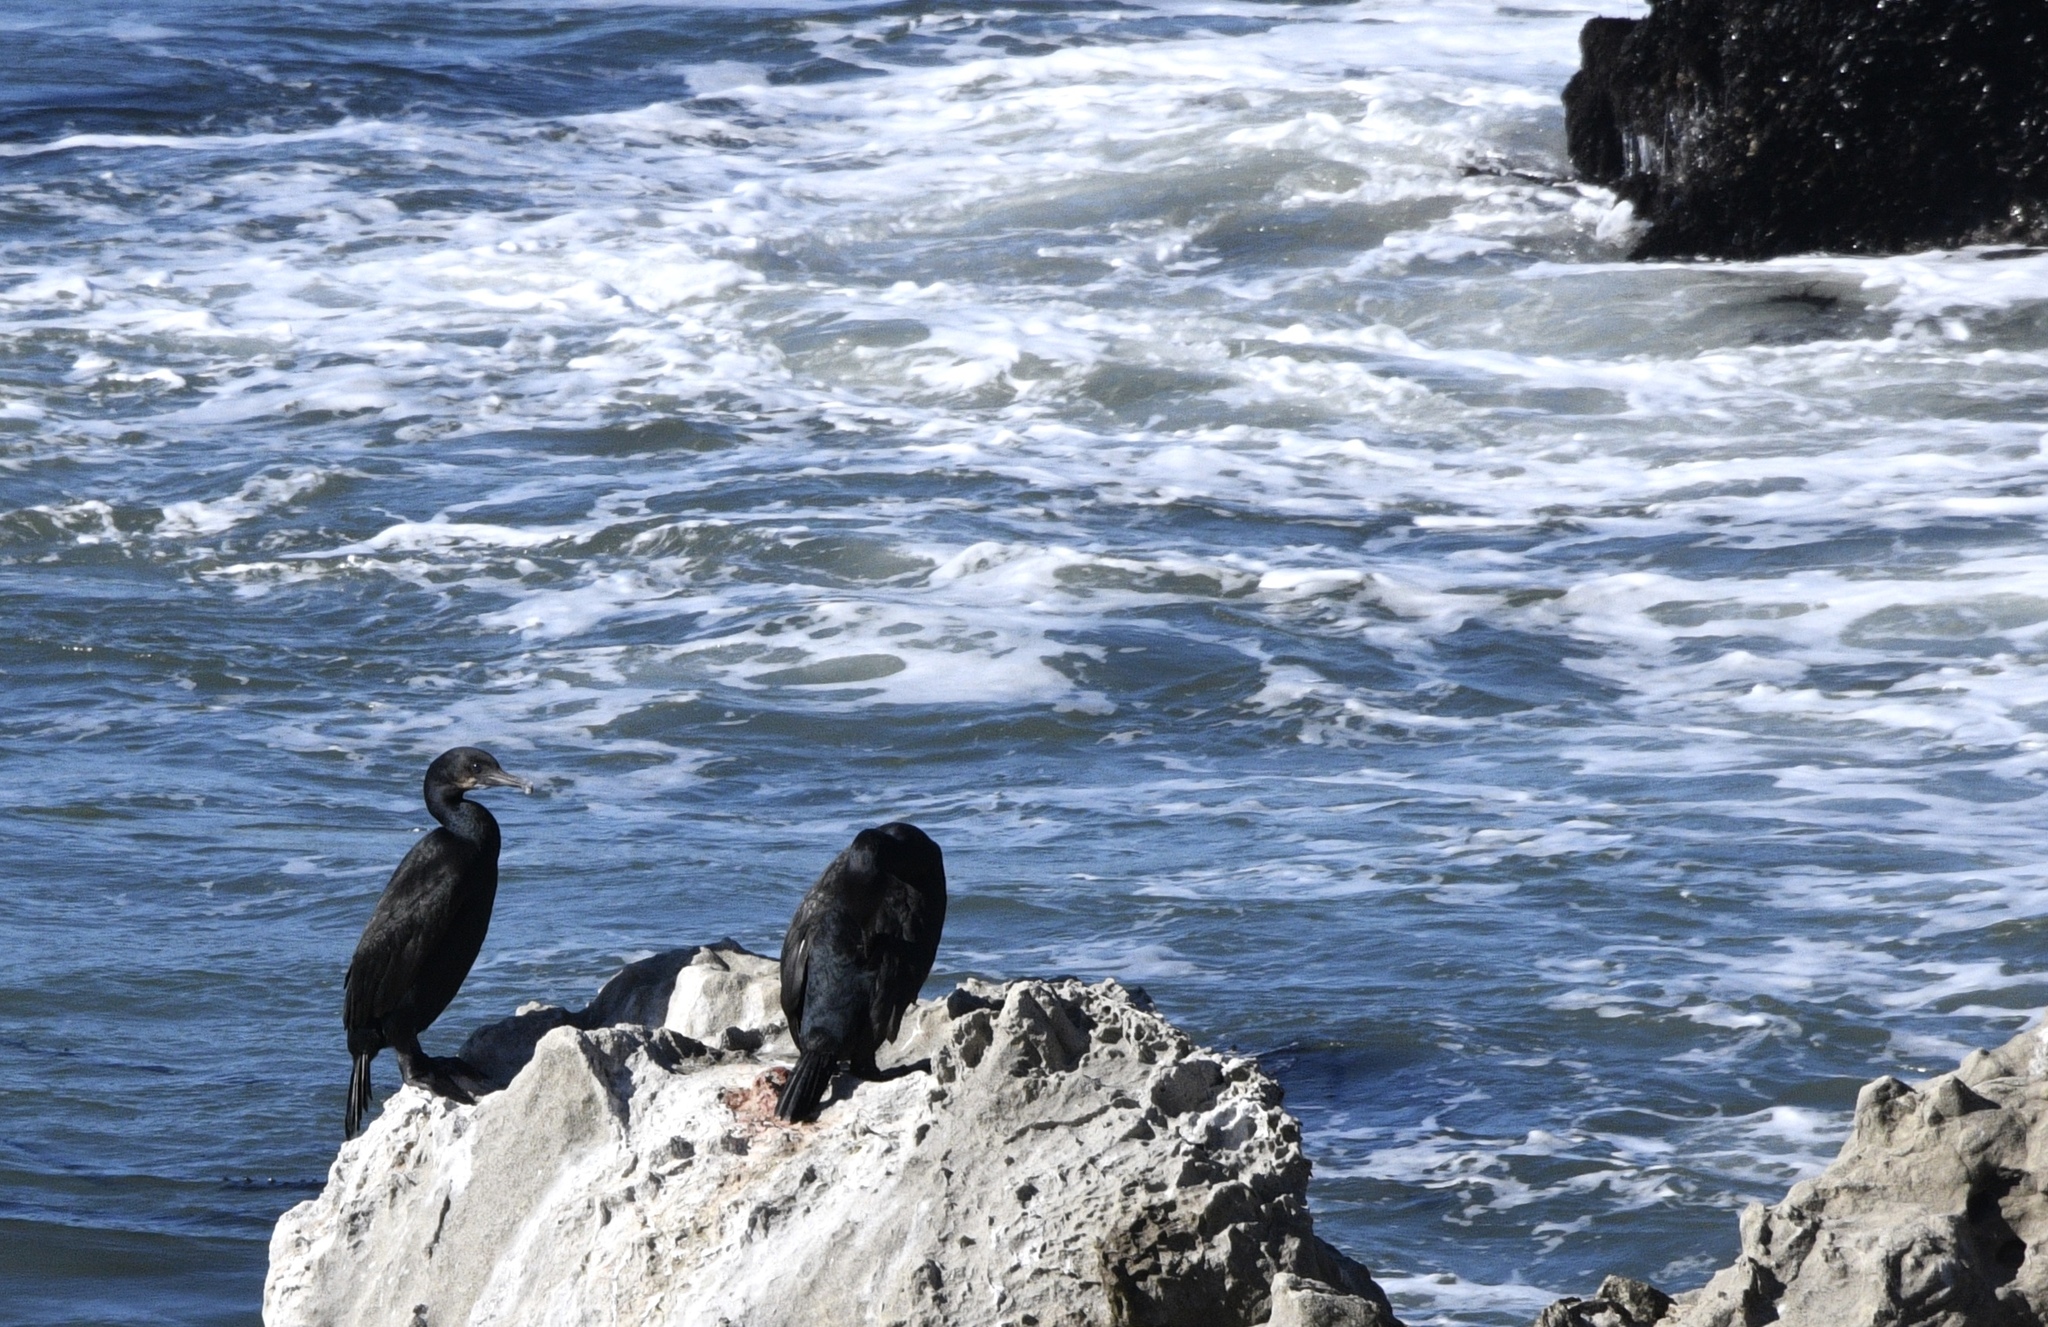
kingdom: Animalia
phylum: Chordata
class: Aves
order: Suliformes
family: Phalacrocoracidae
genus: Urile
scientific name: Urile penicillatus
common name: Brandt's cormorant
